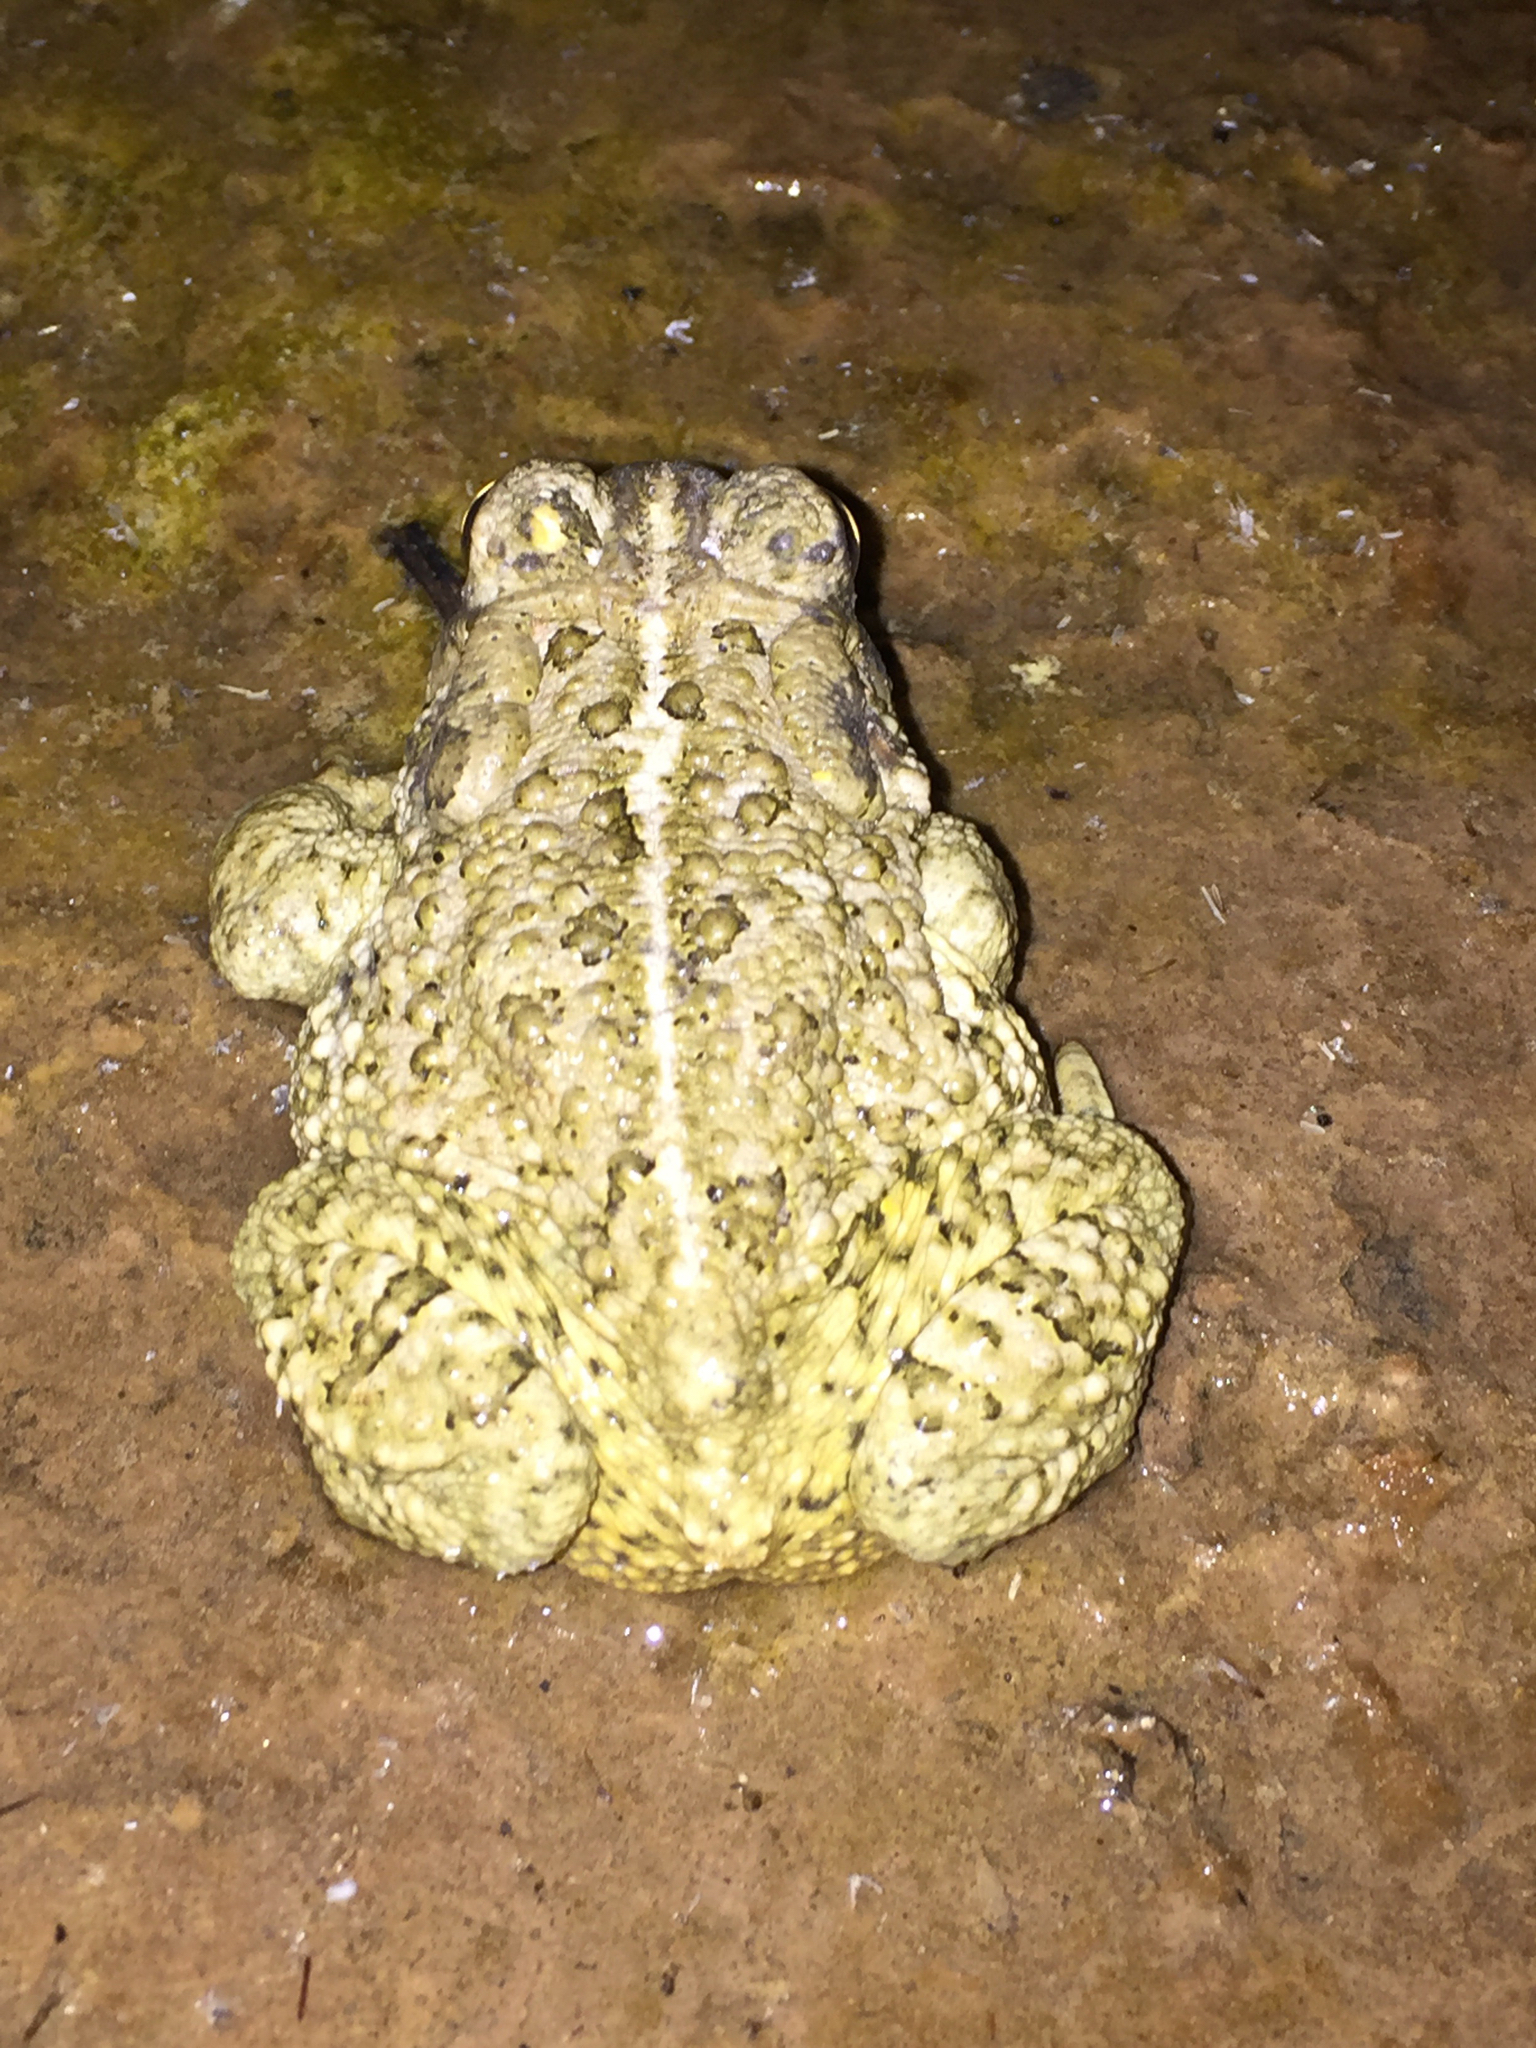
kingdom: Animalia
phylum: Chordata
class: Amphibia
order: Anura
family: Bufonidae
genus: Anaxyrus
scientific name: Anaxyrus woodhousii
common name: Woodhouse's toad
